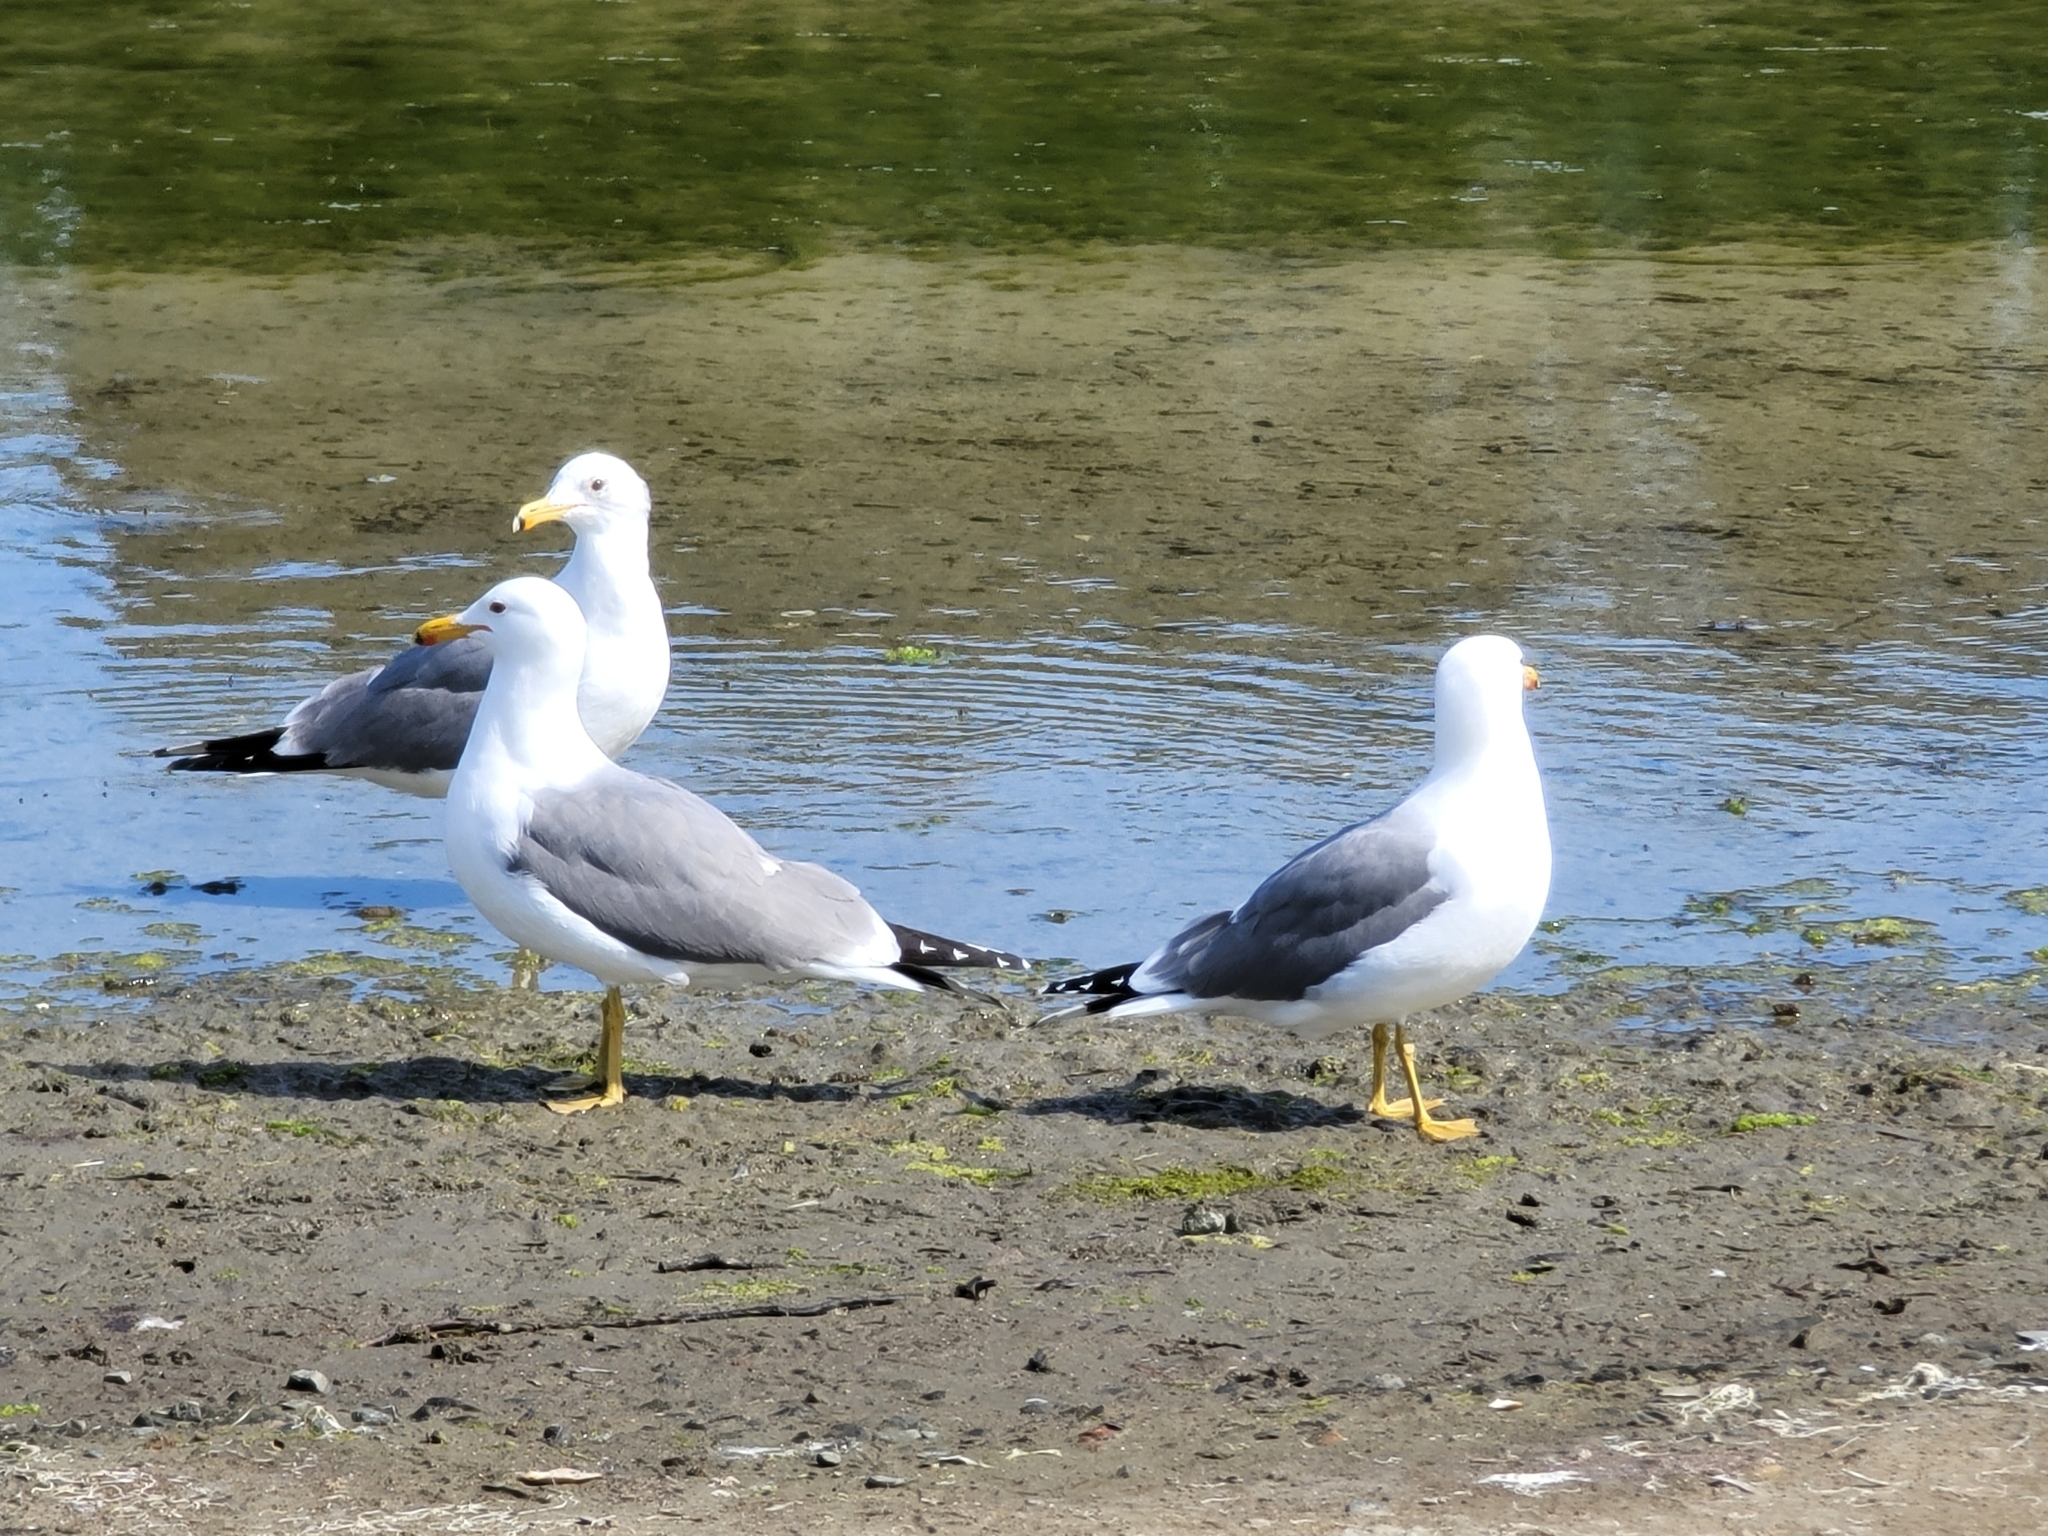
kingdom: Animalia
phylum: Chordata
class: Aves
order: Charadriiformes
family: Laridae
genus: Larus
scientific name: Larus californicus
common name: California gull
